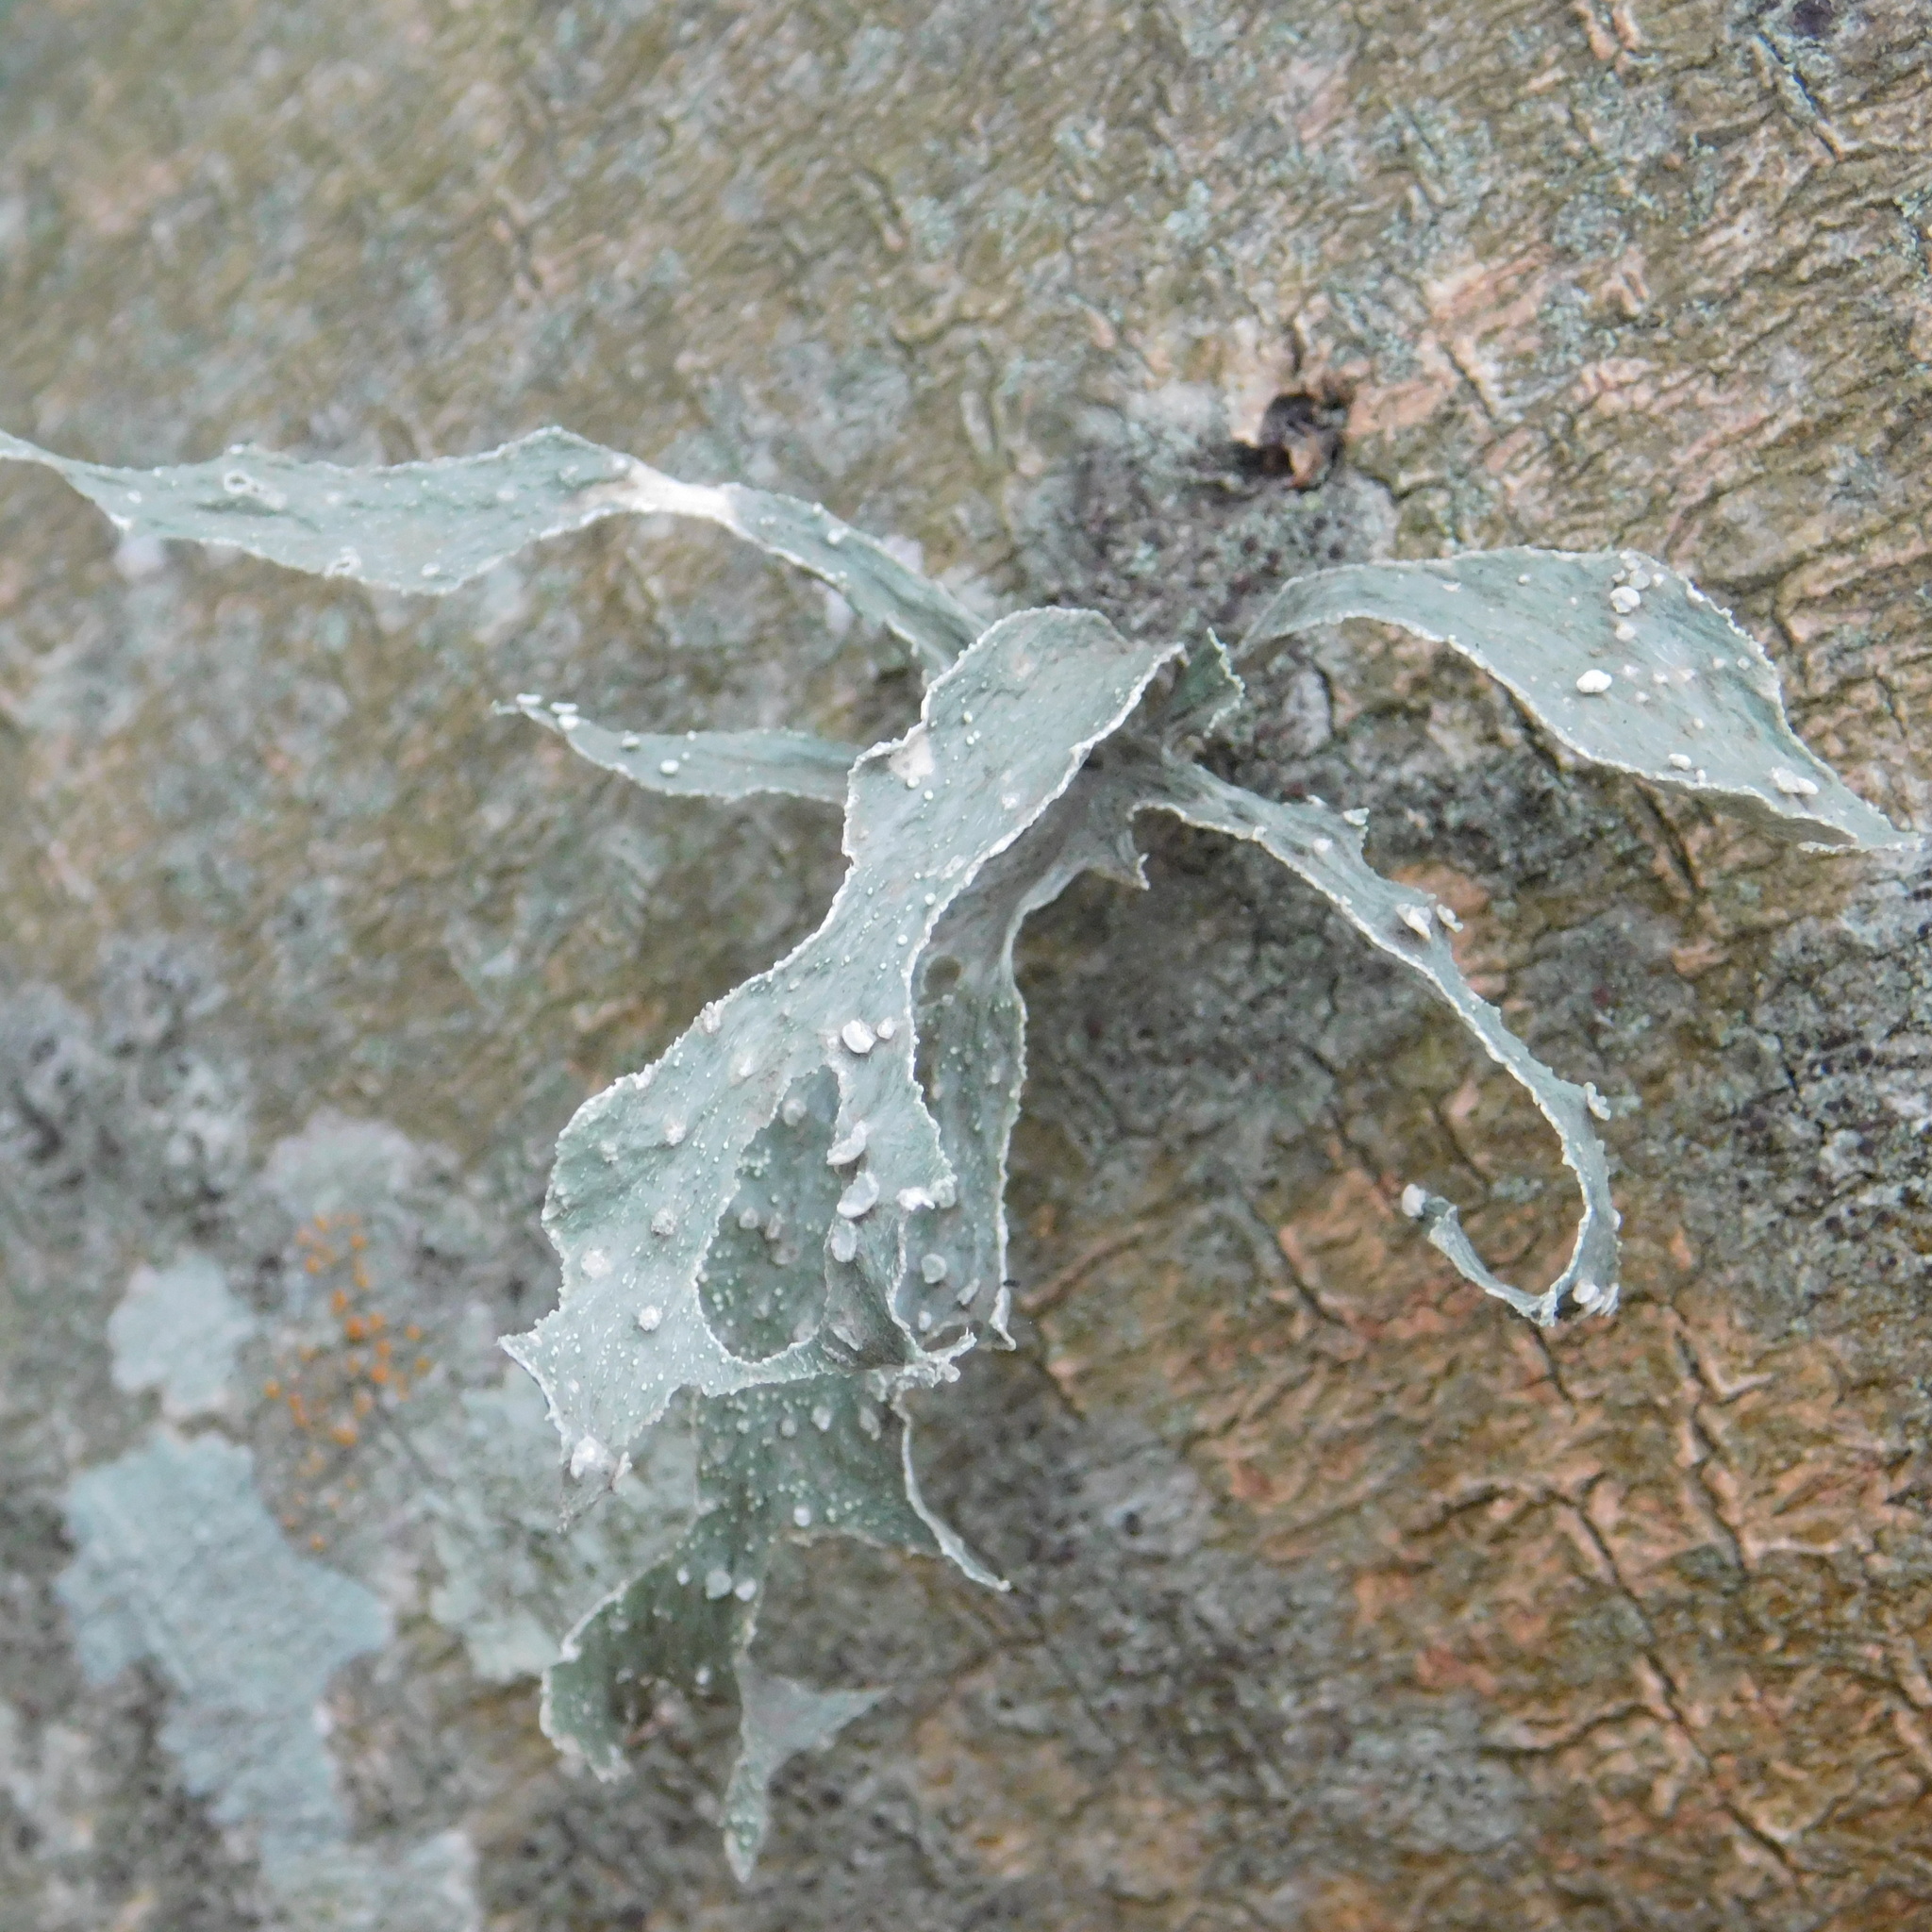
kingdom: Fungi
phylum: Ascomycota
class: Lecanoromycetes
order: Lecanorales
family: Ramalinaceae
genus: Ramalina
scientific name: Ramalina celastri
